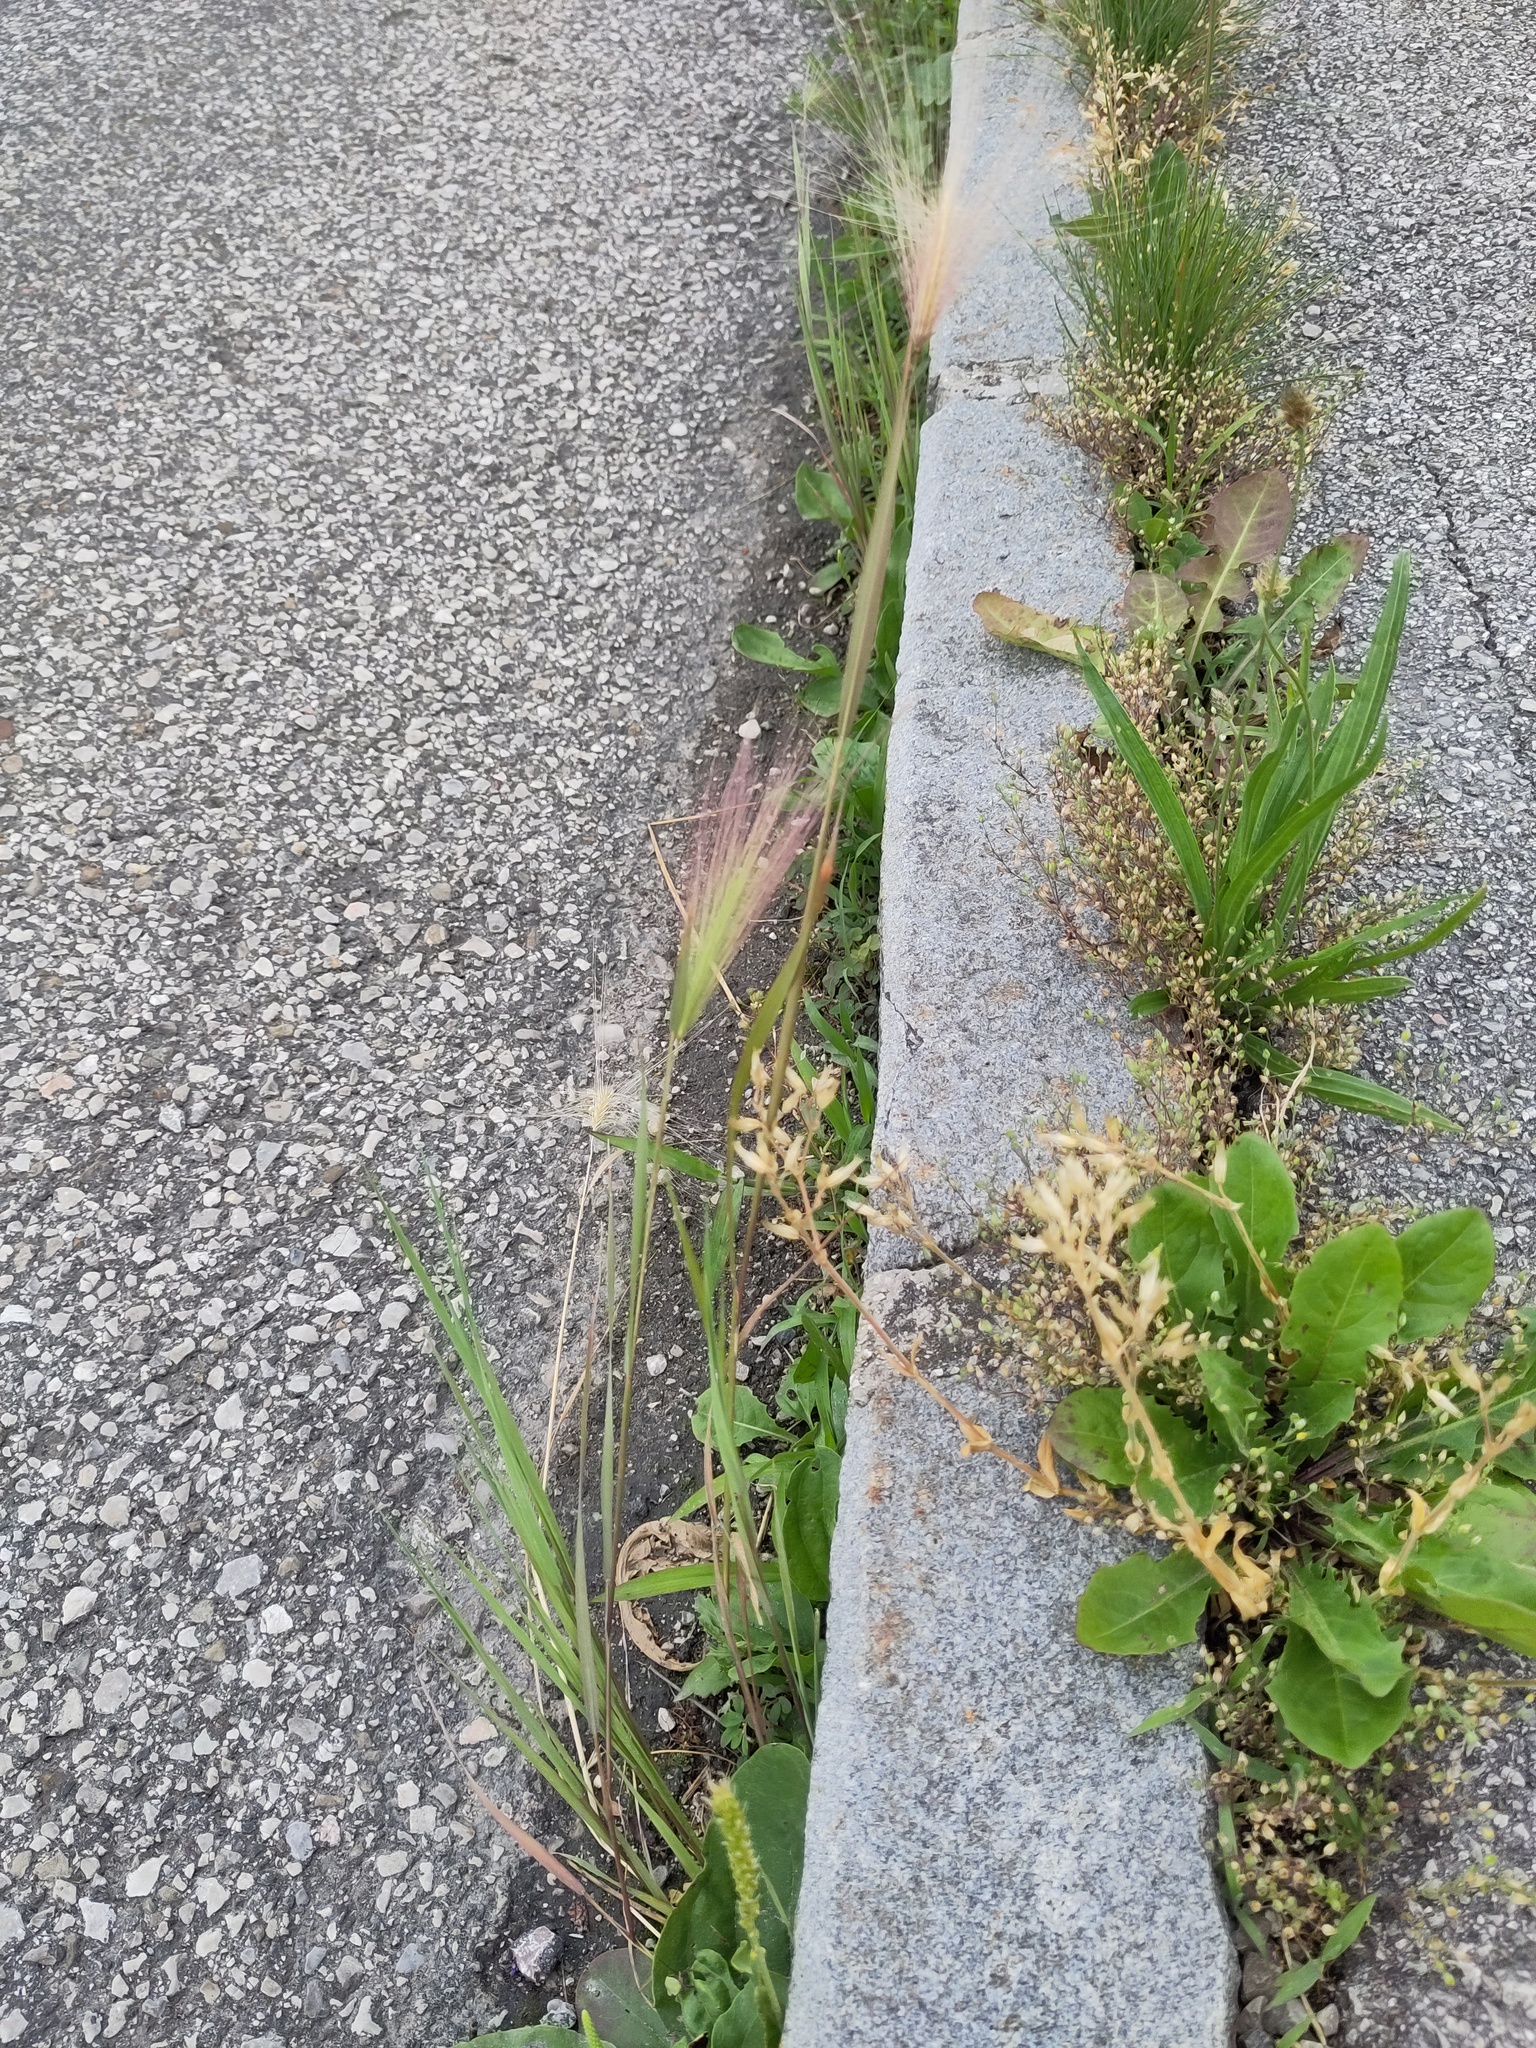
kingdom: Plantae
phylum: Tracheophyta
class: Liliopsida
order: Poales
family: Poaceae
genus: Hordeum
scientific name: Hordeum murinum
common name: Wall barley
